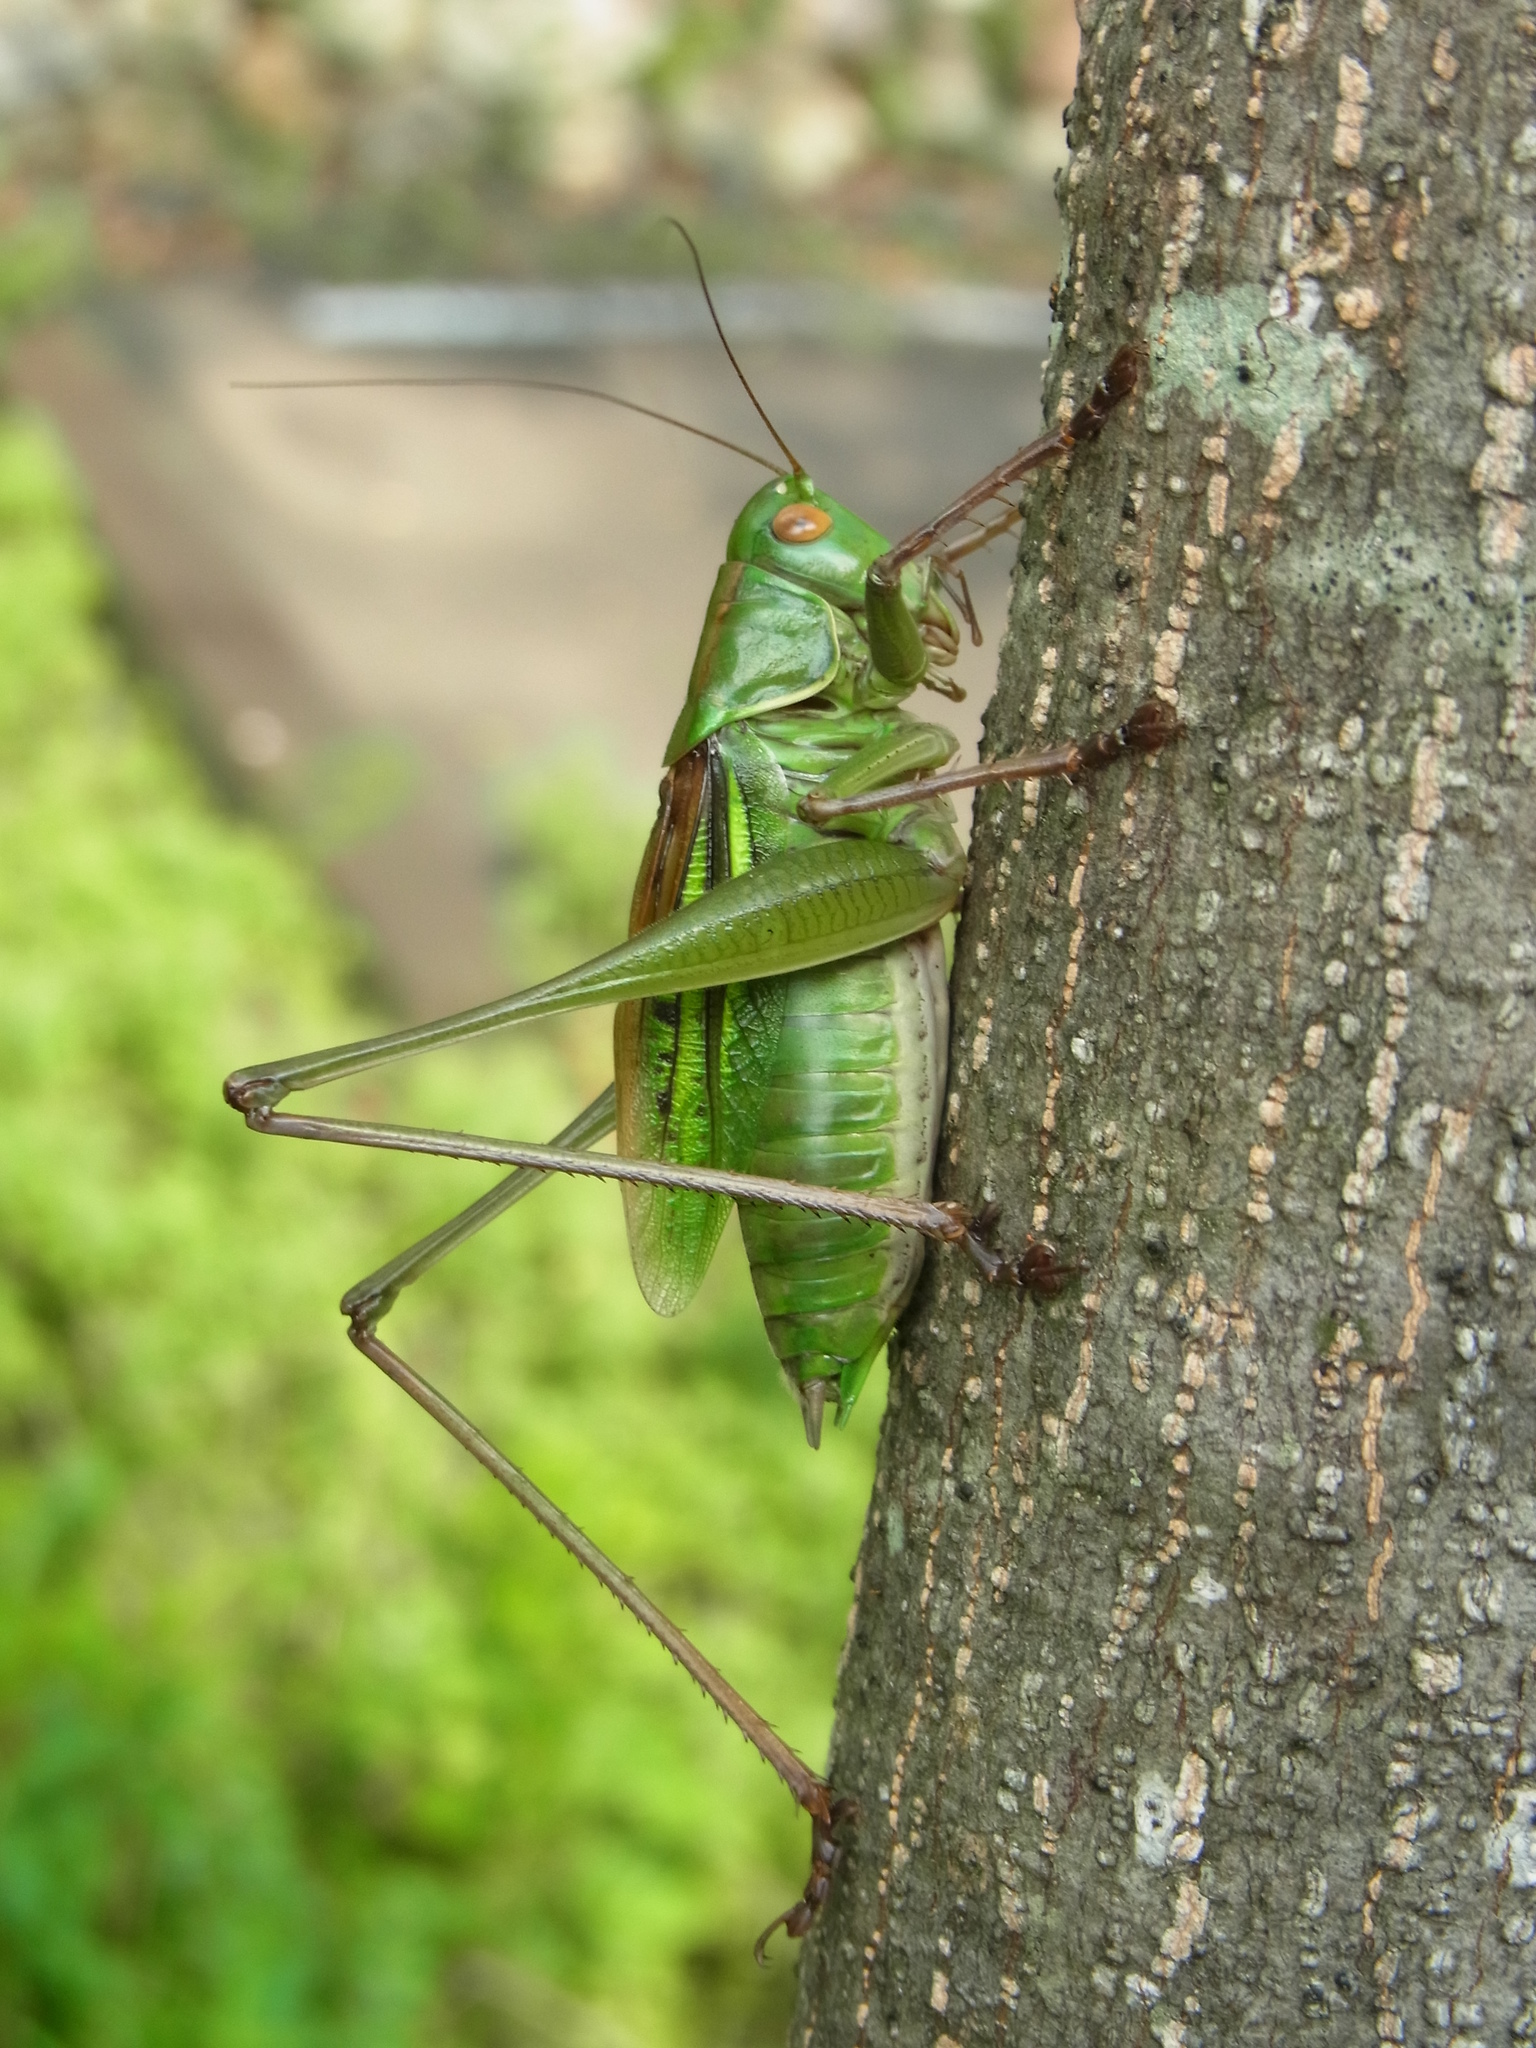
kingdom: Animalia
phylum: Arthropoda
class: Insecta
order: Orthoptera
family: Tettigoniidae
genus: Gampsocleis
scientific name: Gampsocleis buergeri
